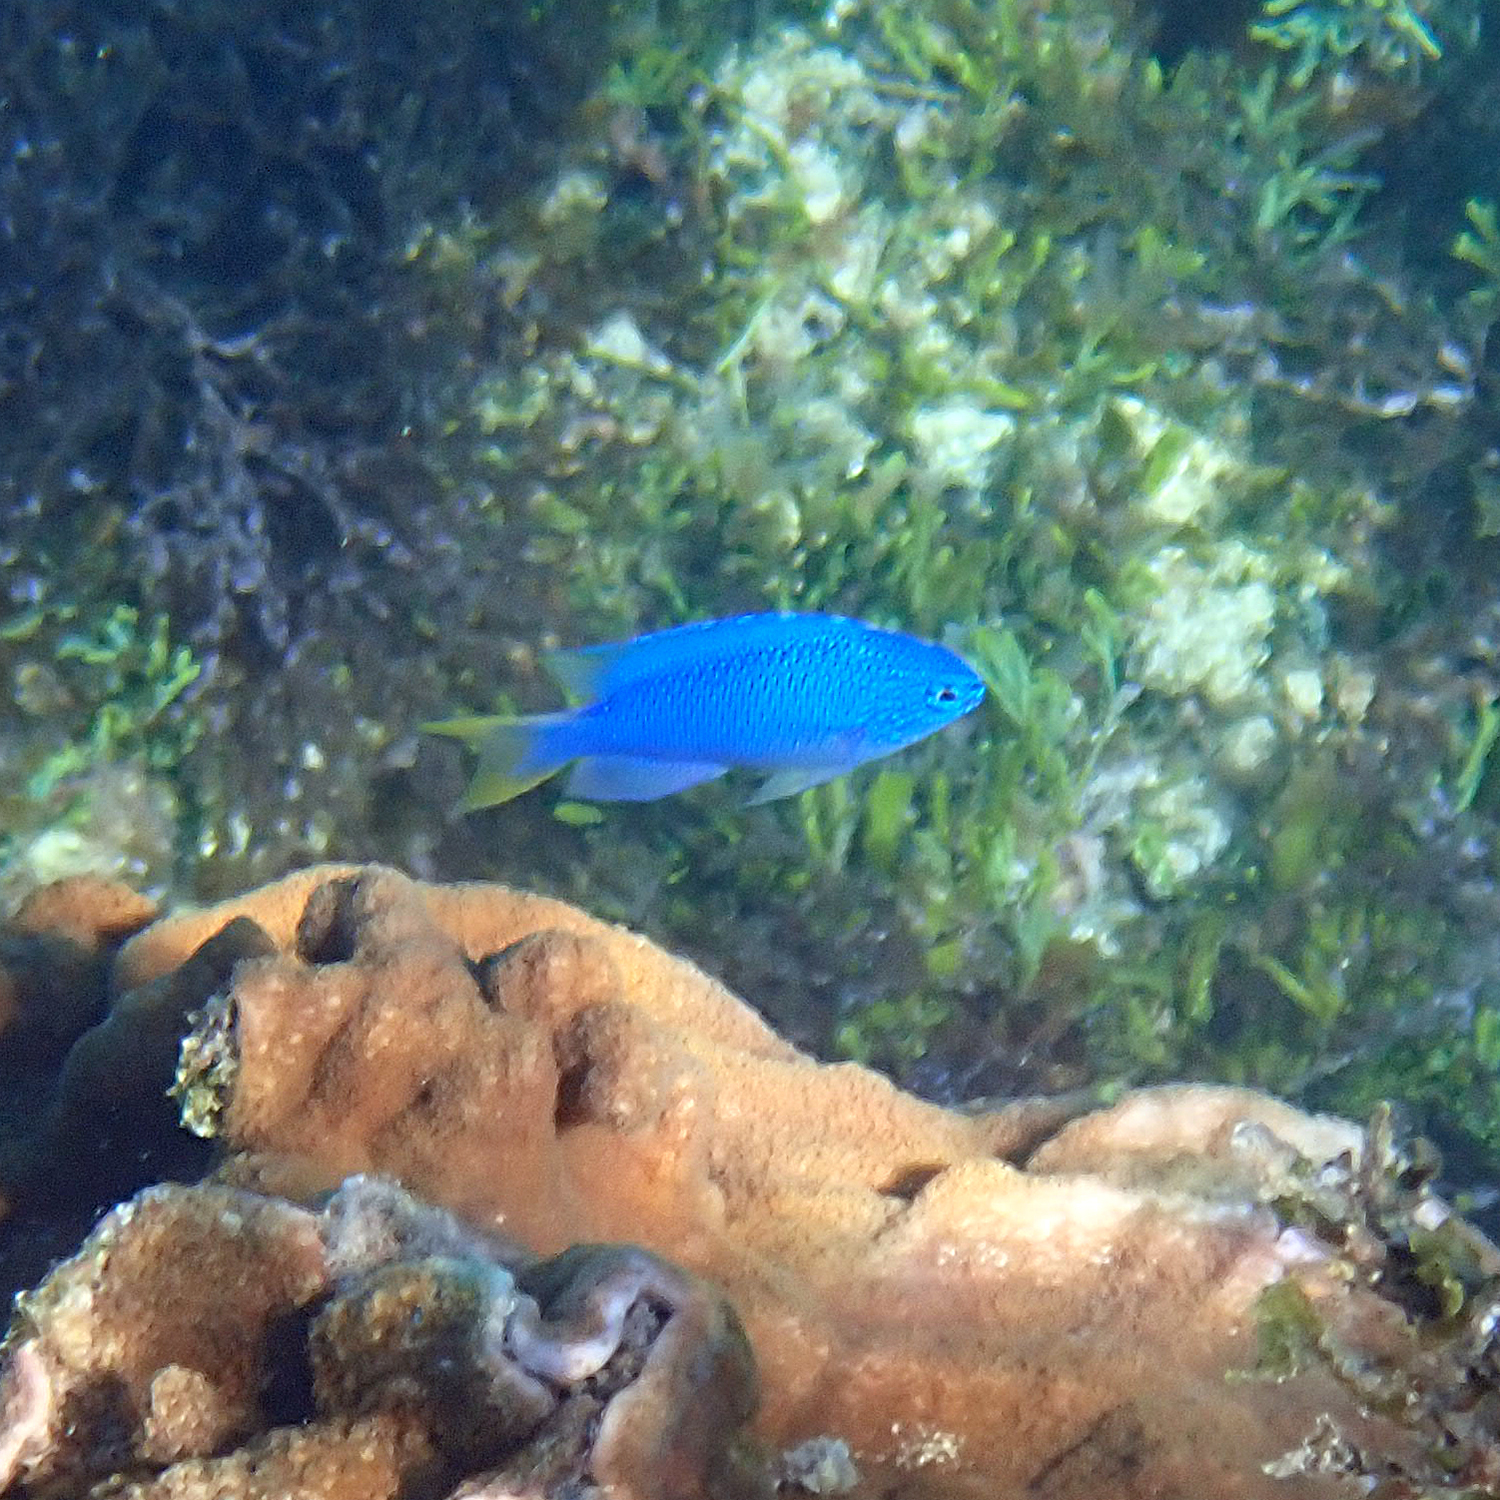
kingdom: Animalia
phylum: Chordata
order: Perciformes
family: Pomacentridae
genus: Pomacentrus
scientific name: Pomacentrus pavo
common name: Sapphire damsel
